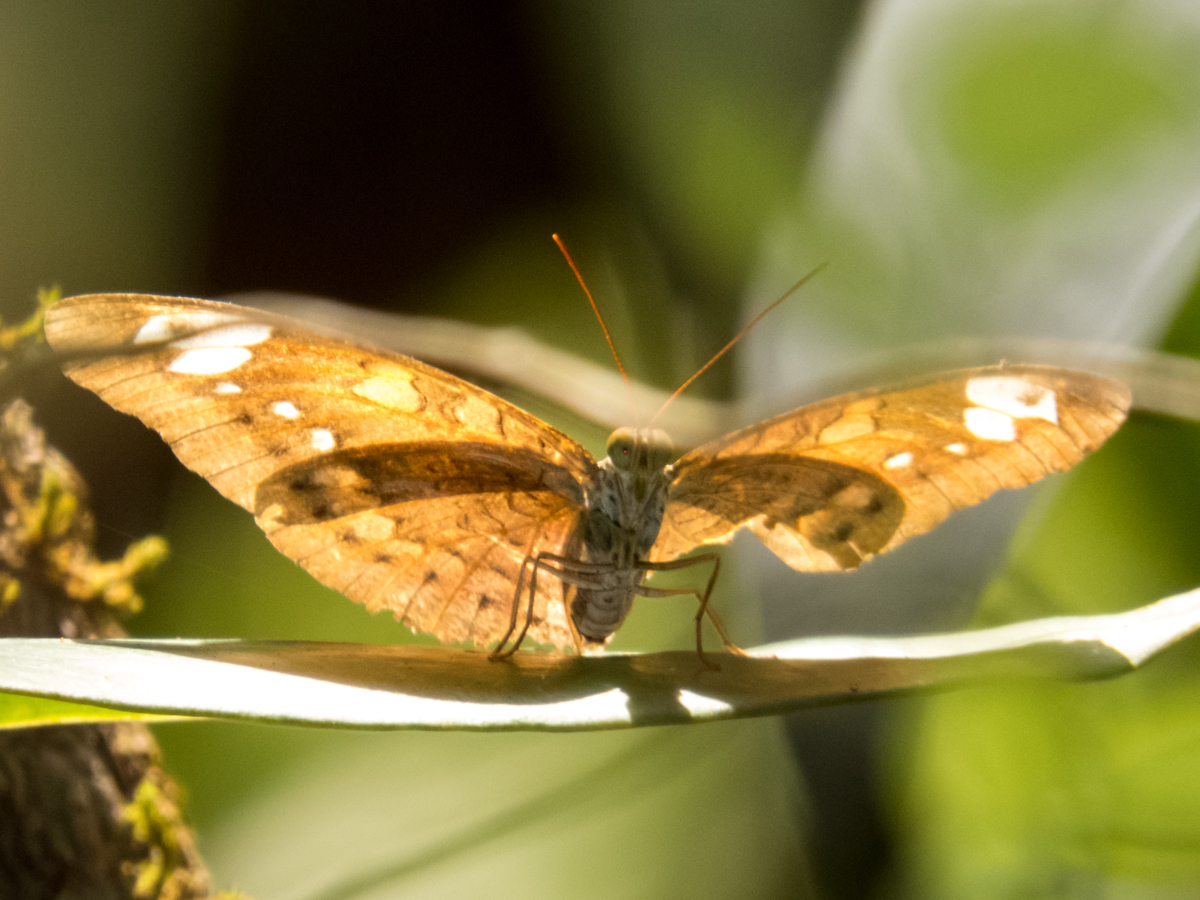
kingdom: Animalia
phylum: Arthropoda
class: Insecta
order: Lepidoptera
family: Nymphalidae
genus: Tanaecia
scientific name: Tanaecia julii
